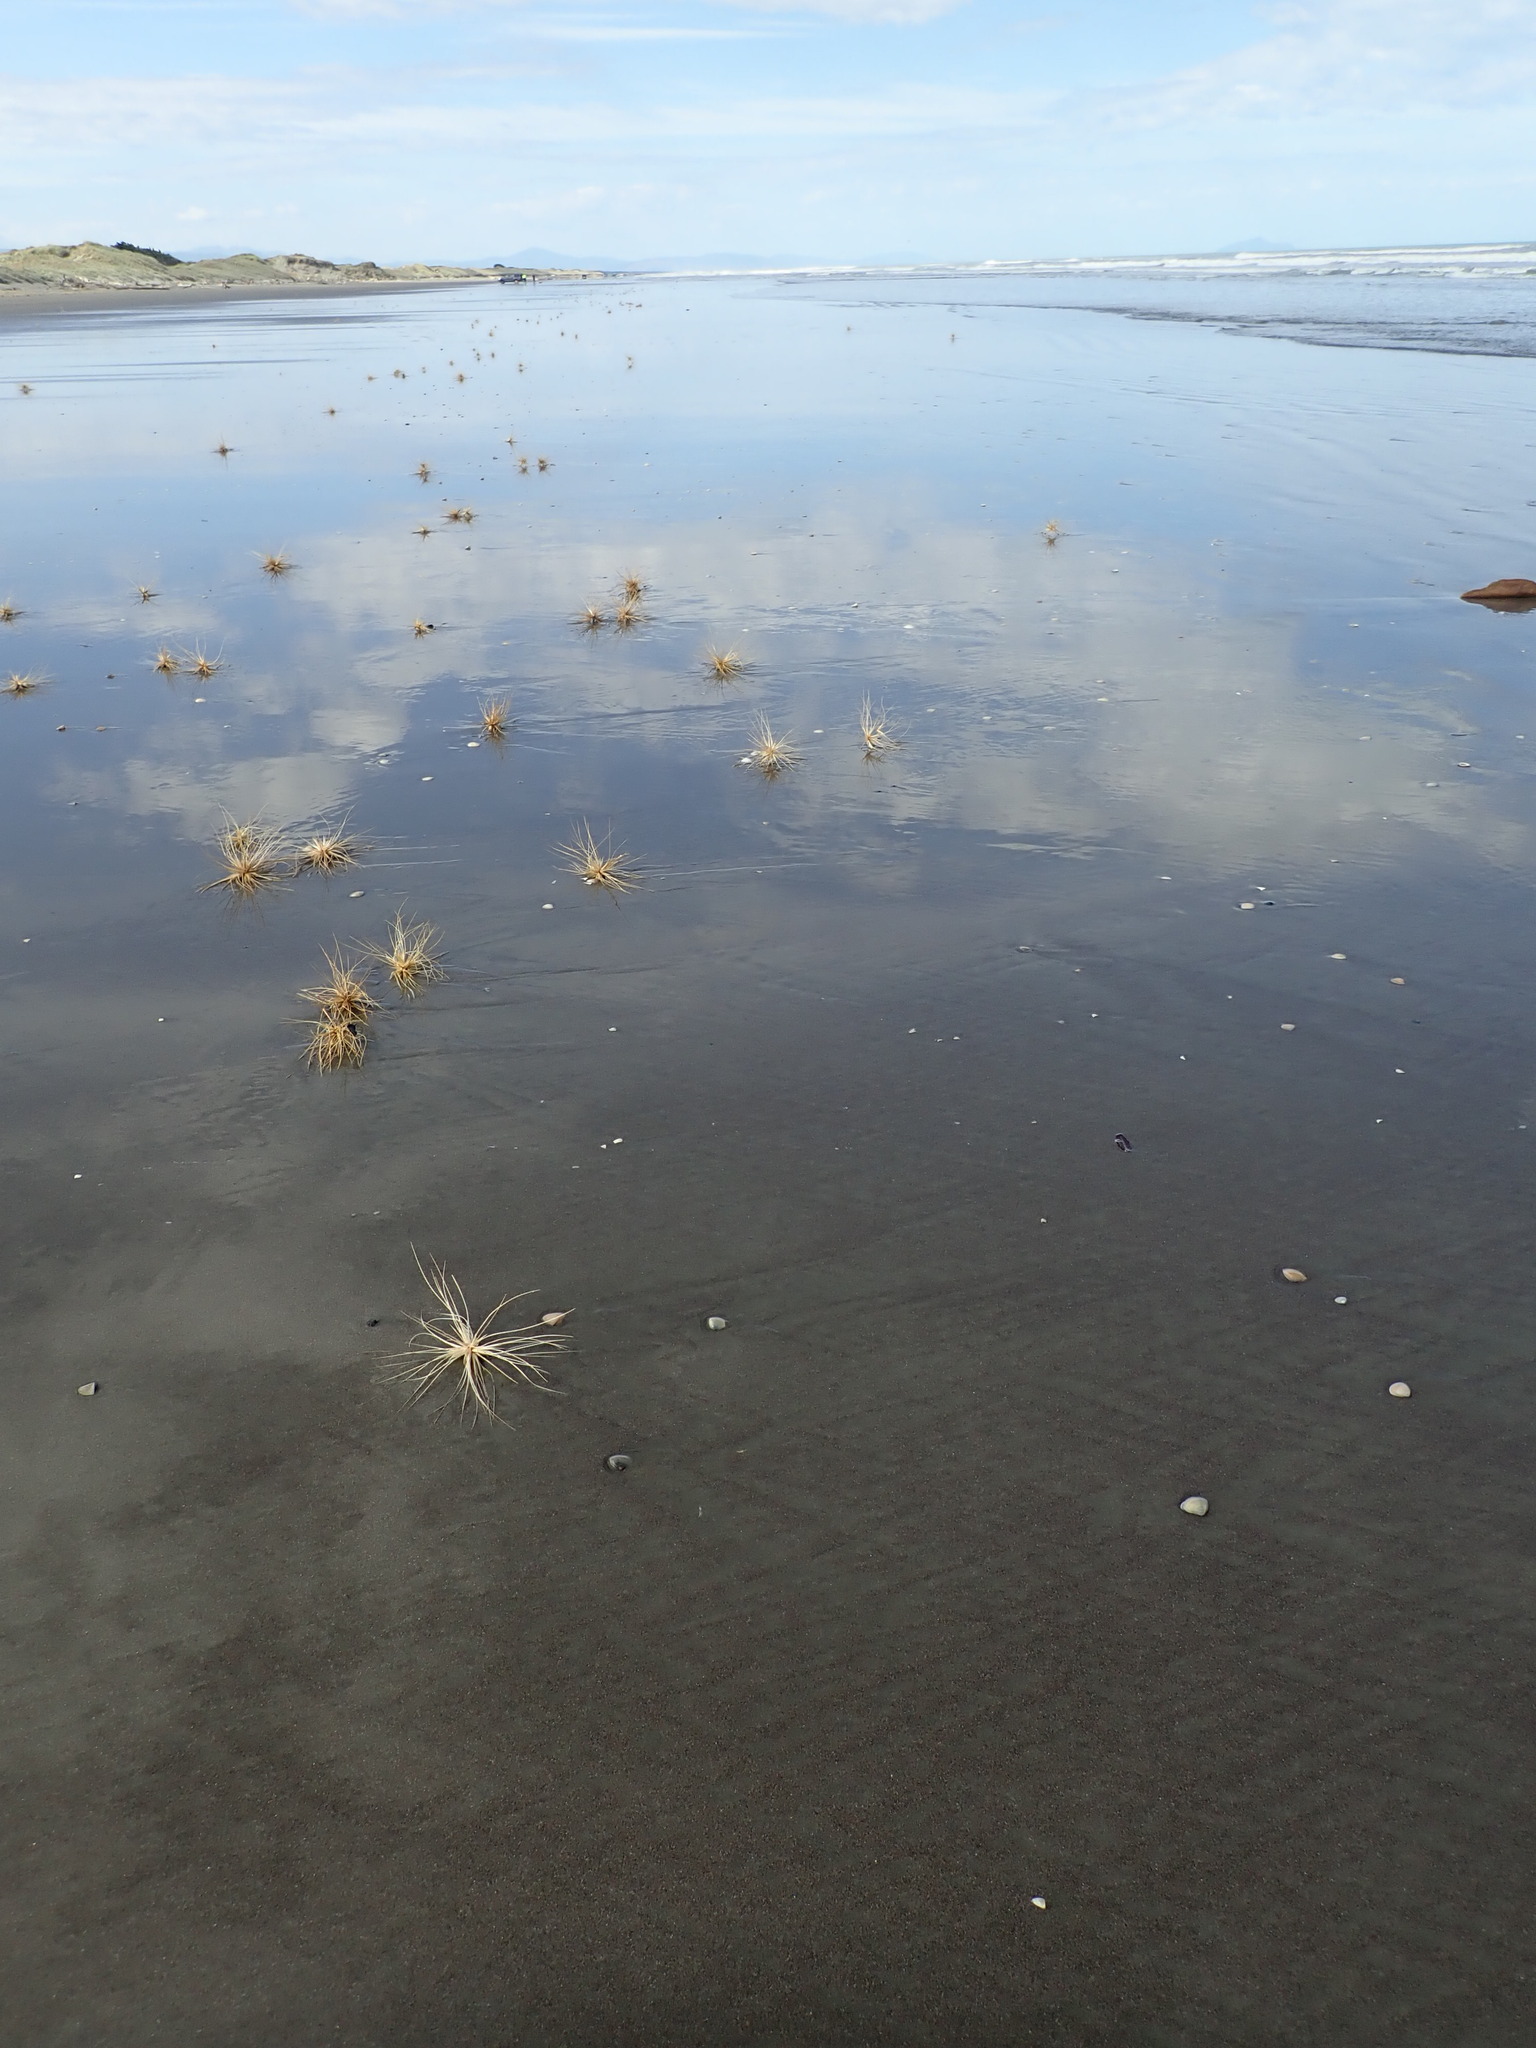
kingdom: Plantae
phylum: Tracheophyta
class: Liliopsida
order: Poales
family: Poaceae
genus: Spinifex
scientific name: Spinifex sericeus
